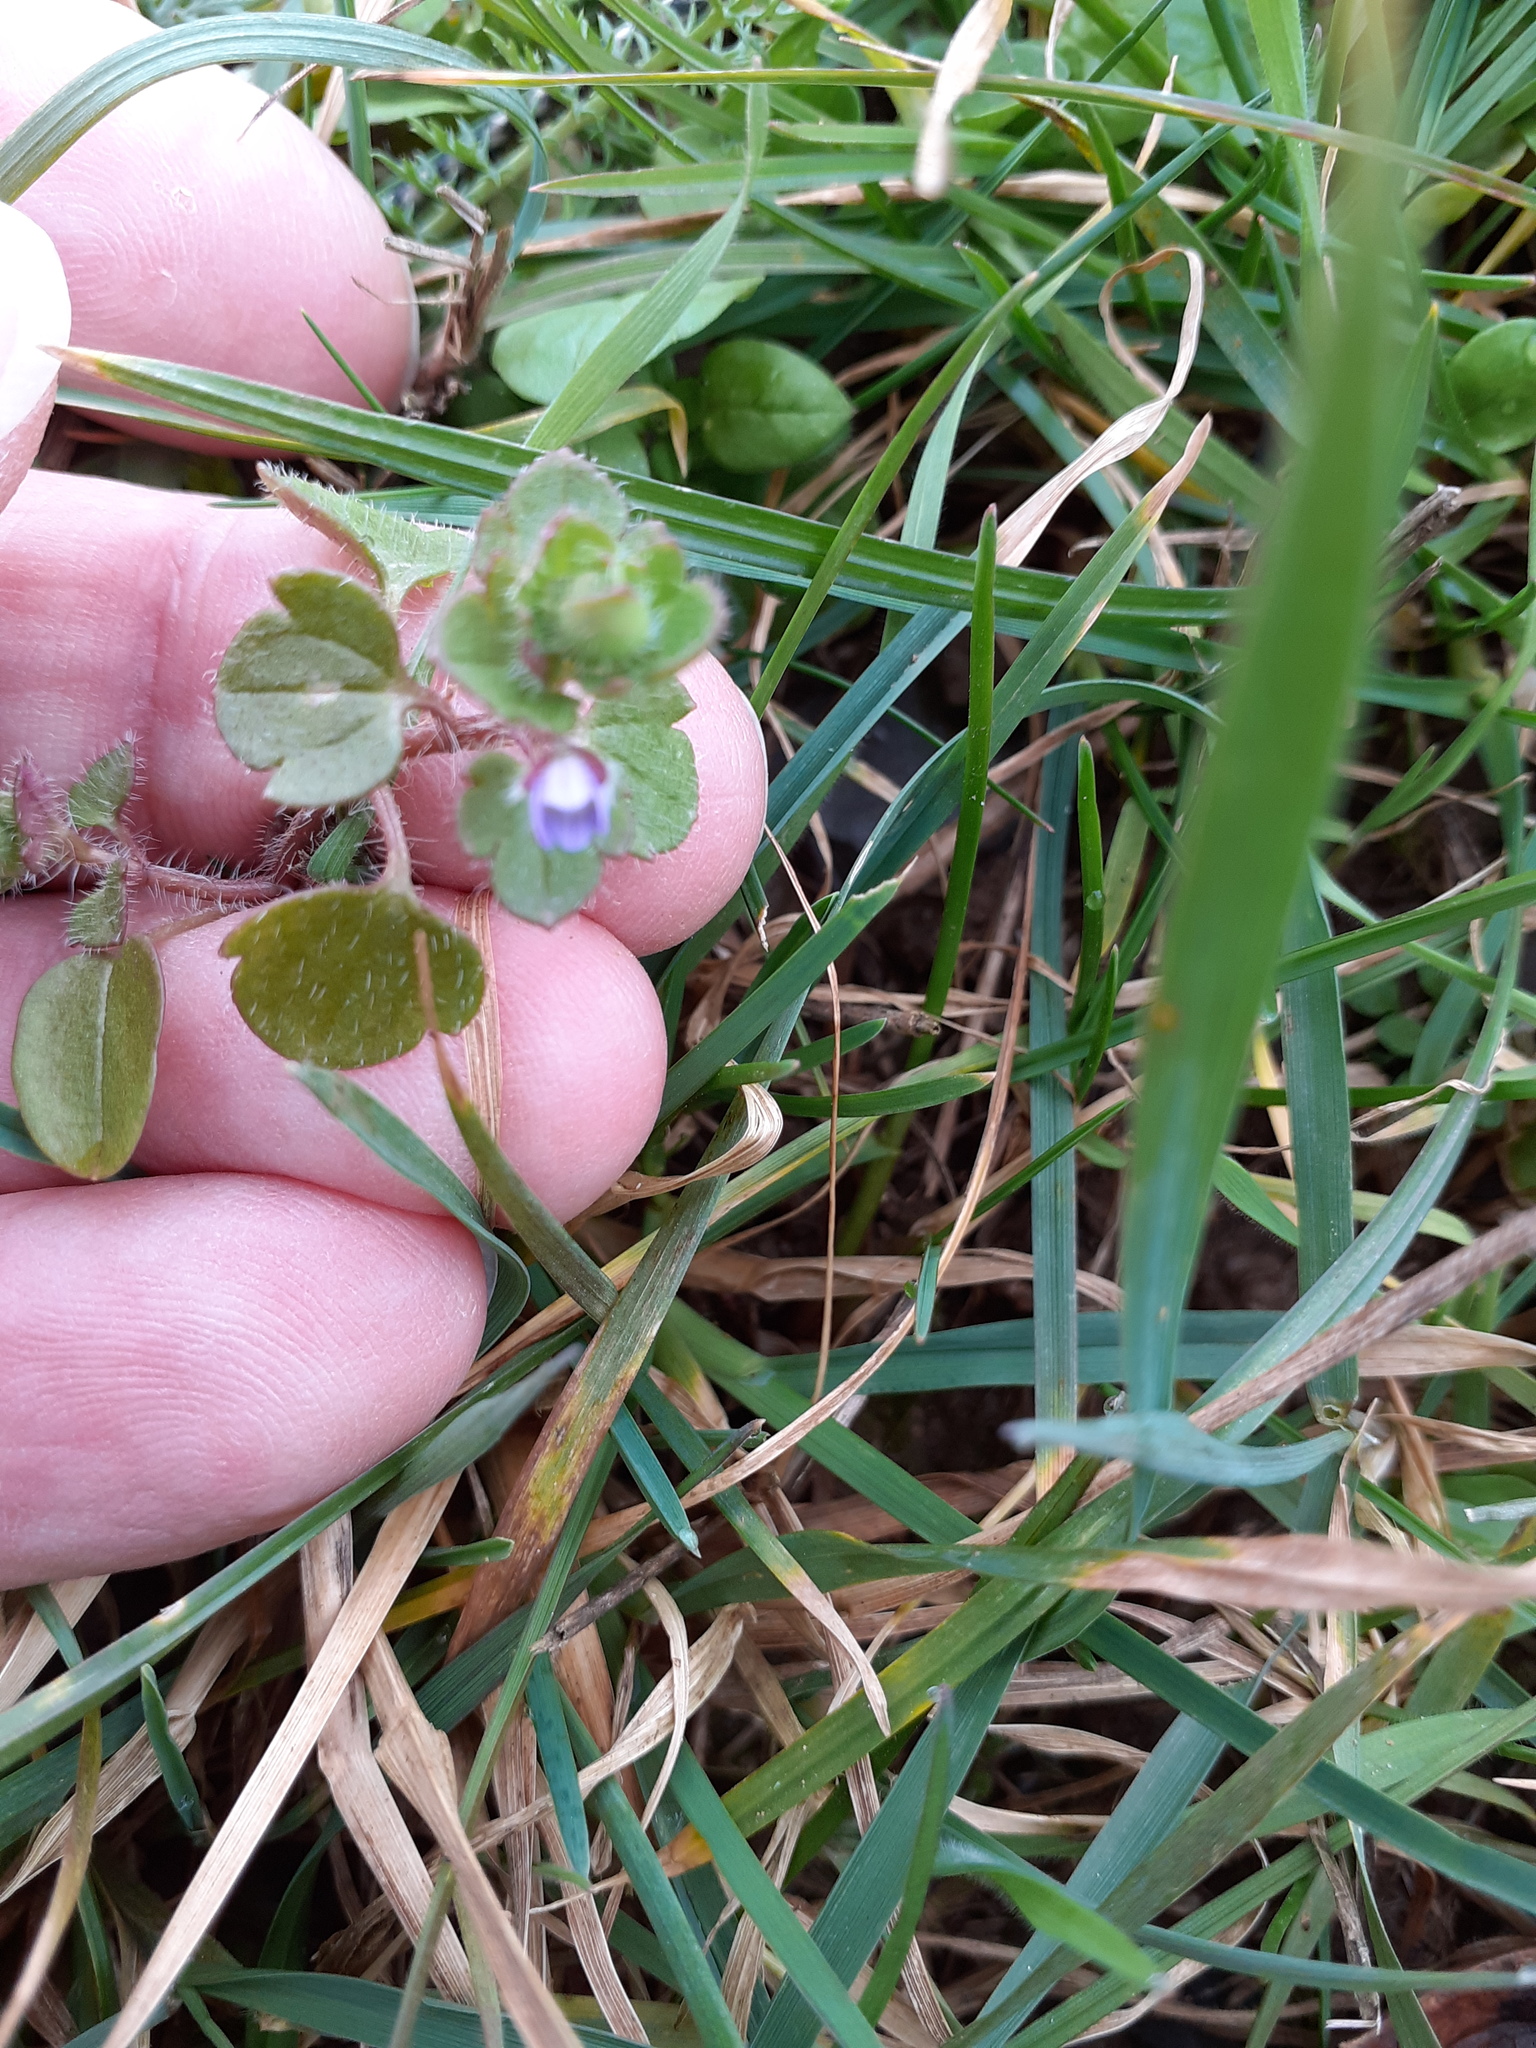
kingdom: Plantae
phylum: Tracheophyta
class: Magnoliopsida
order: Lamiales
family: Plantaginaceae
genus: Veronica
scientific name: Veronica hederifolia
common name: Ivy-leaved speedwell
